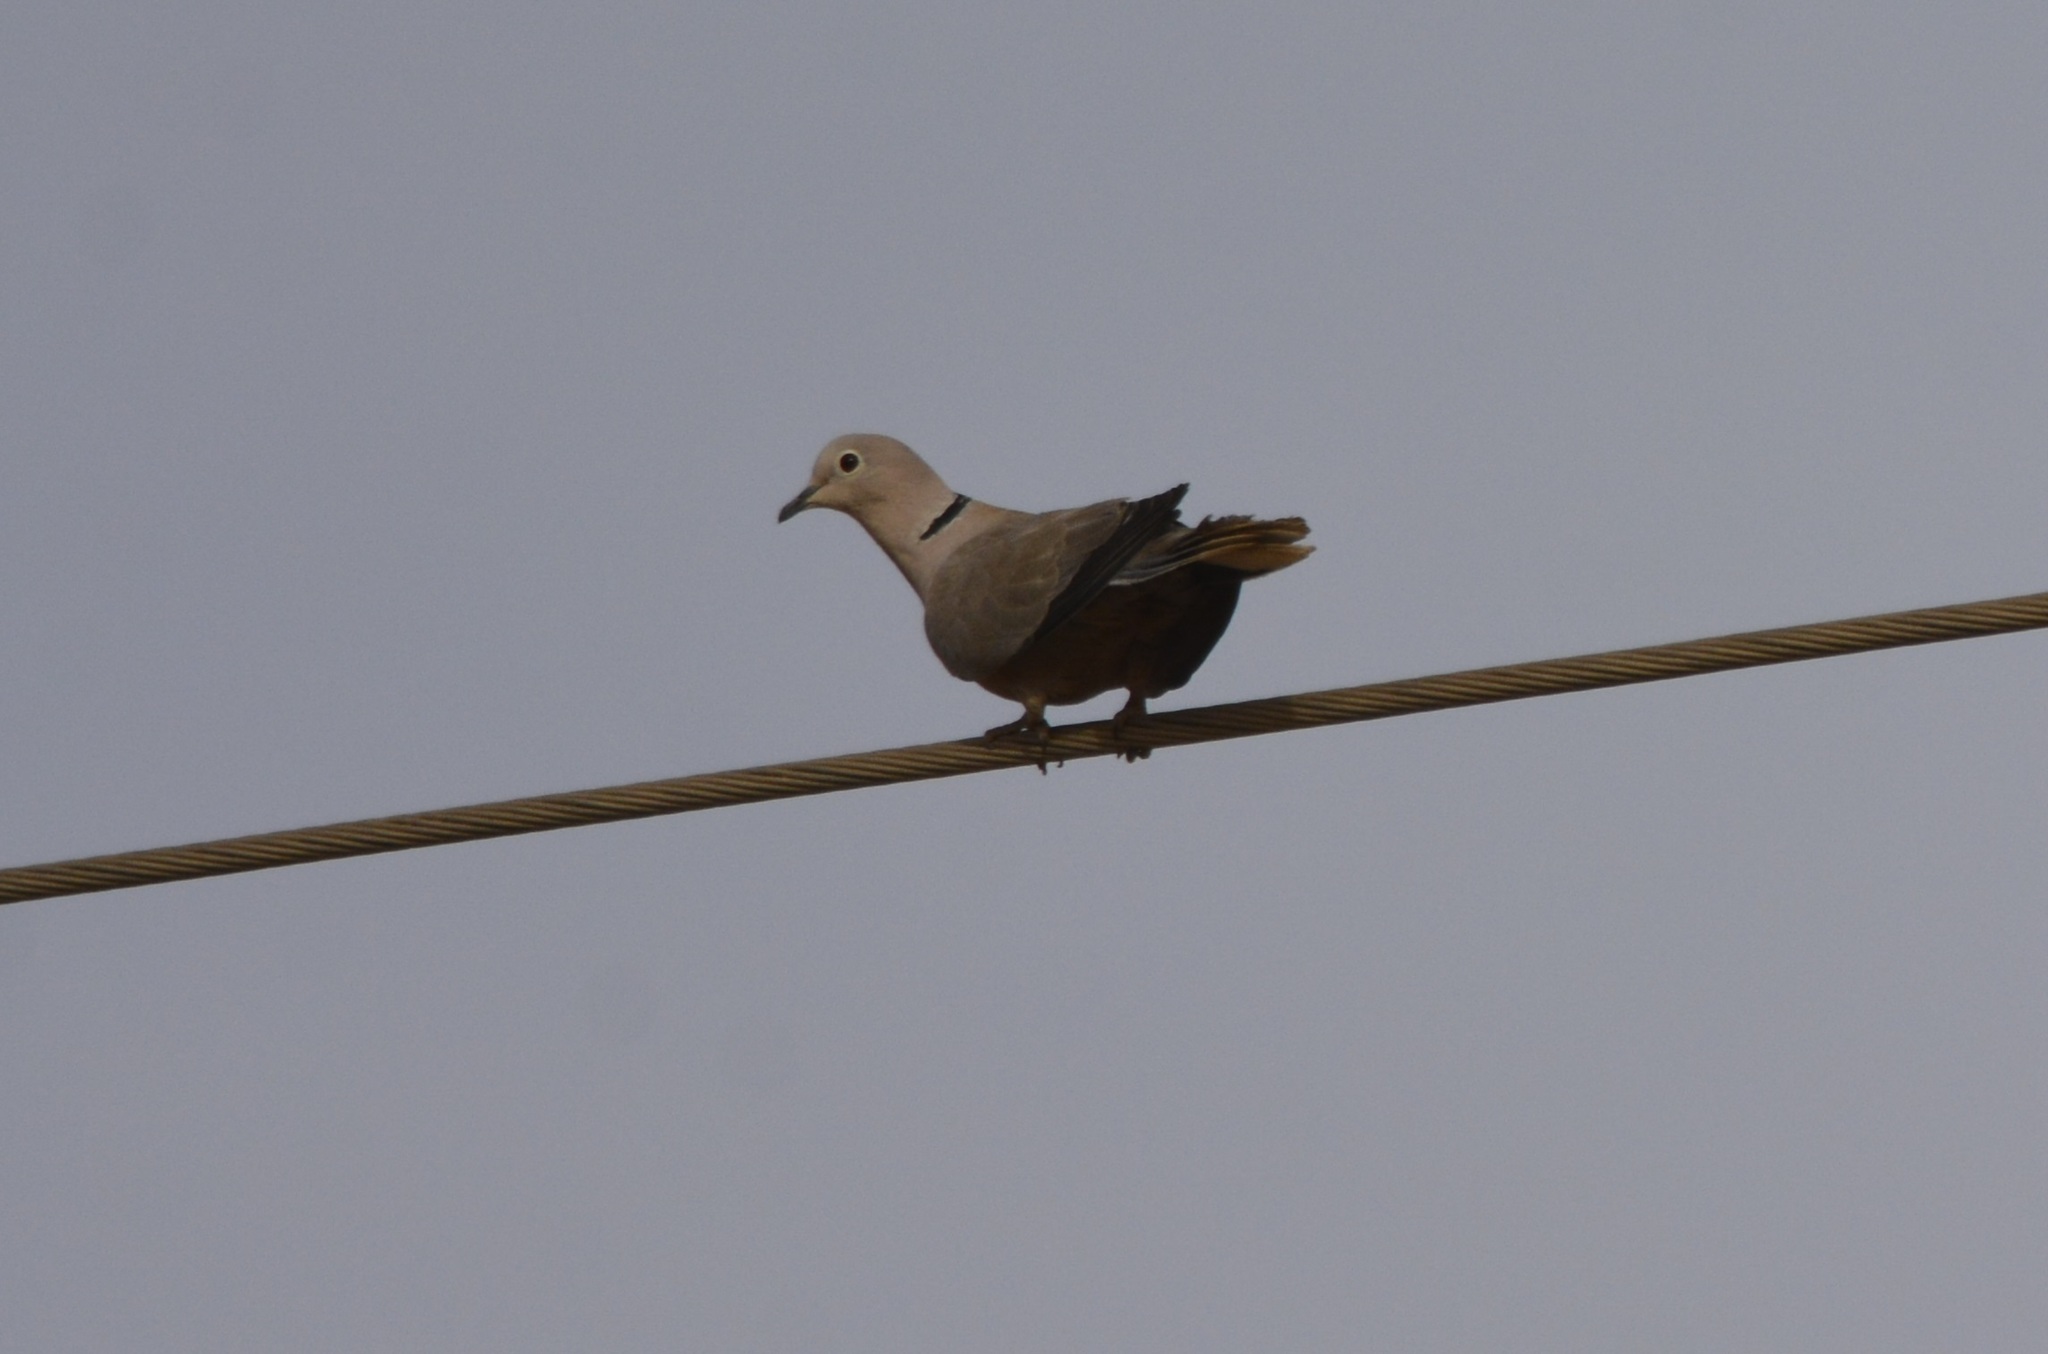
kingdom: Animalia
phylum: Chordata
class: Aves
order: Columbiformes
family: Columbidae
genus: Streptopelia
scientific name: Streptopelia decaocto
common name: Eurasian collared dove
